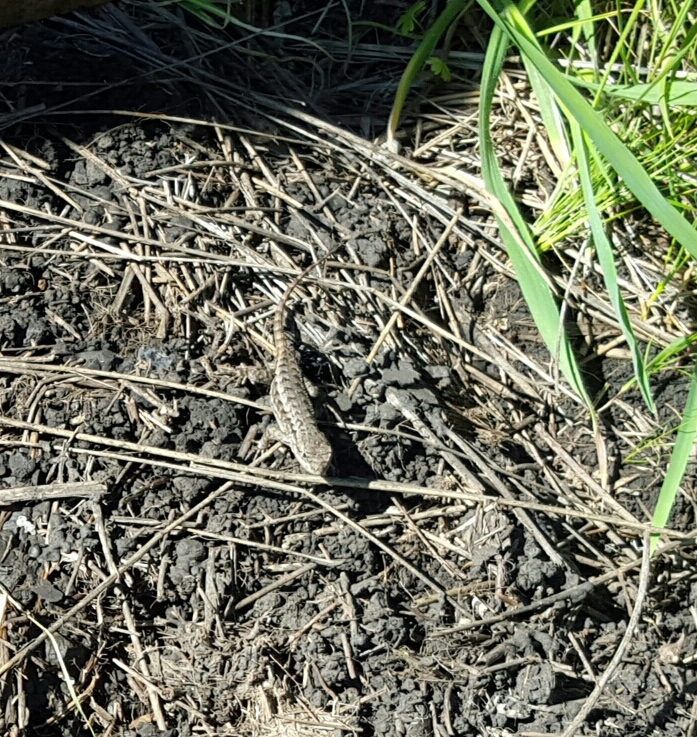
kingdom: Animalia
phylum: Chordata
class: Squamata
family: Phrynosomatidae
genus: Sceloporus
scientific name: Sceloporus occidentalis
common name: Western fence lizard
